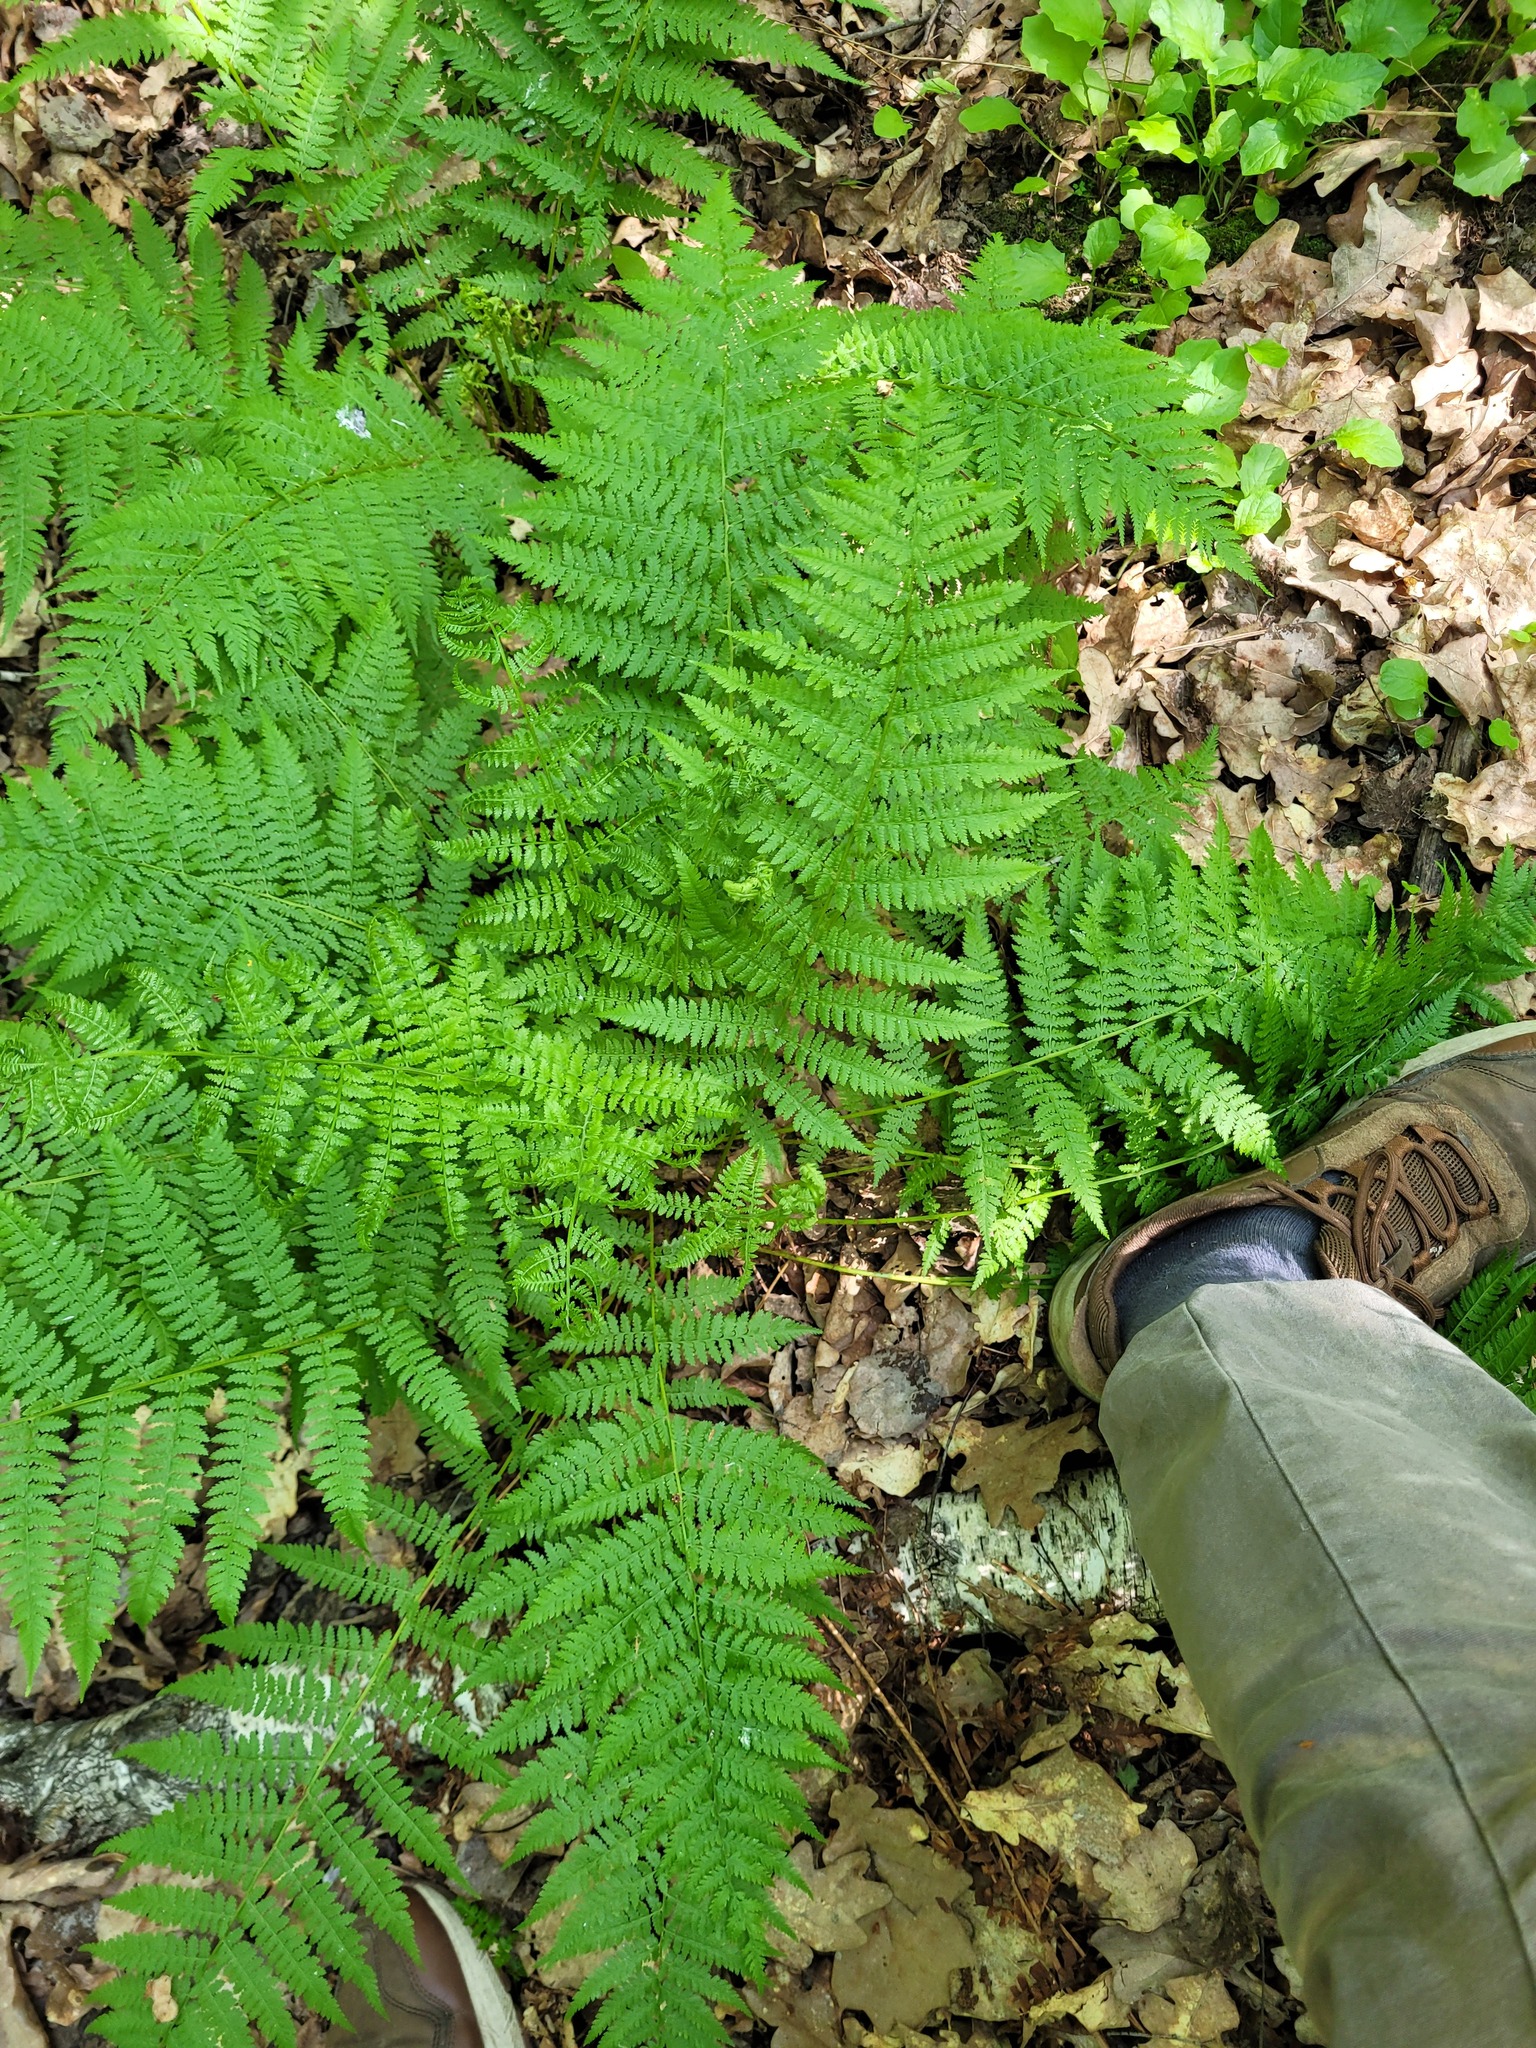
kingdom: Plantae
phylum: Tracheophyta
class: Polypodiopsida
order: Polypodiales
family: Athyriaceae
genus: Athyrium
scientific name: Athyrium filix-femina
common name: Lady fern
